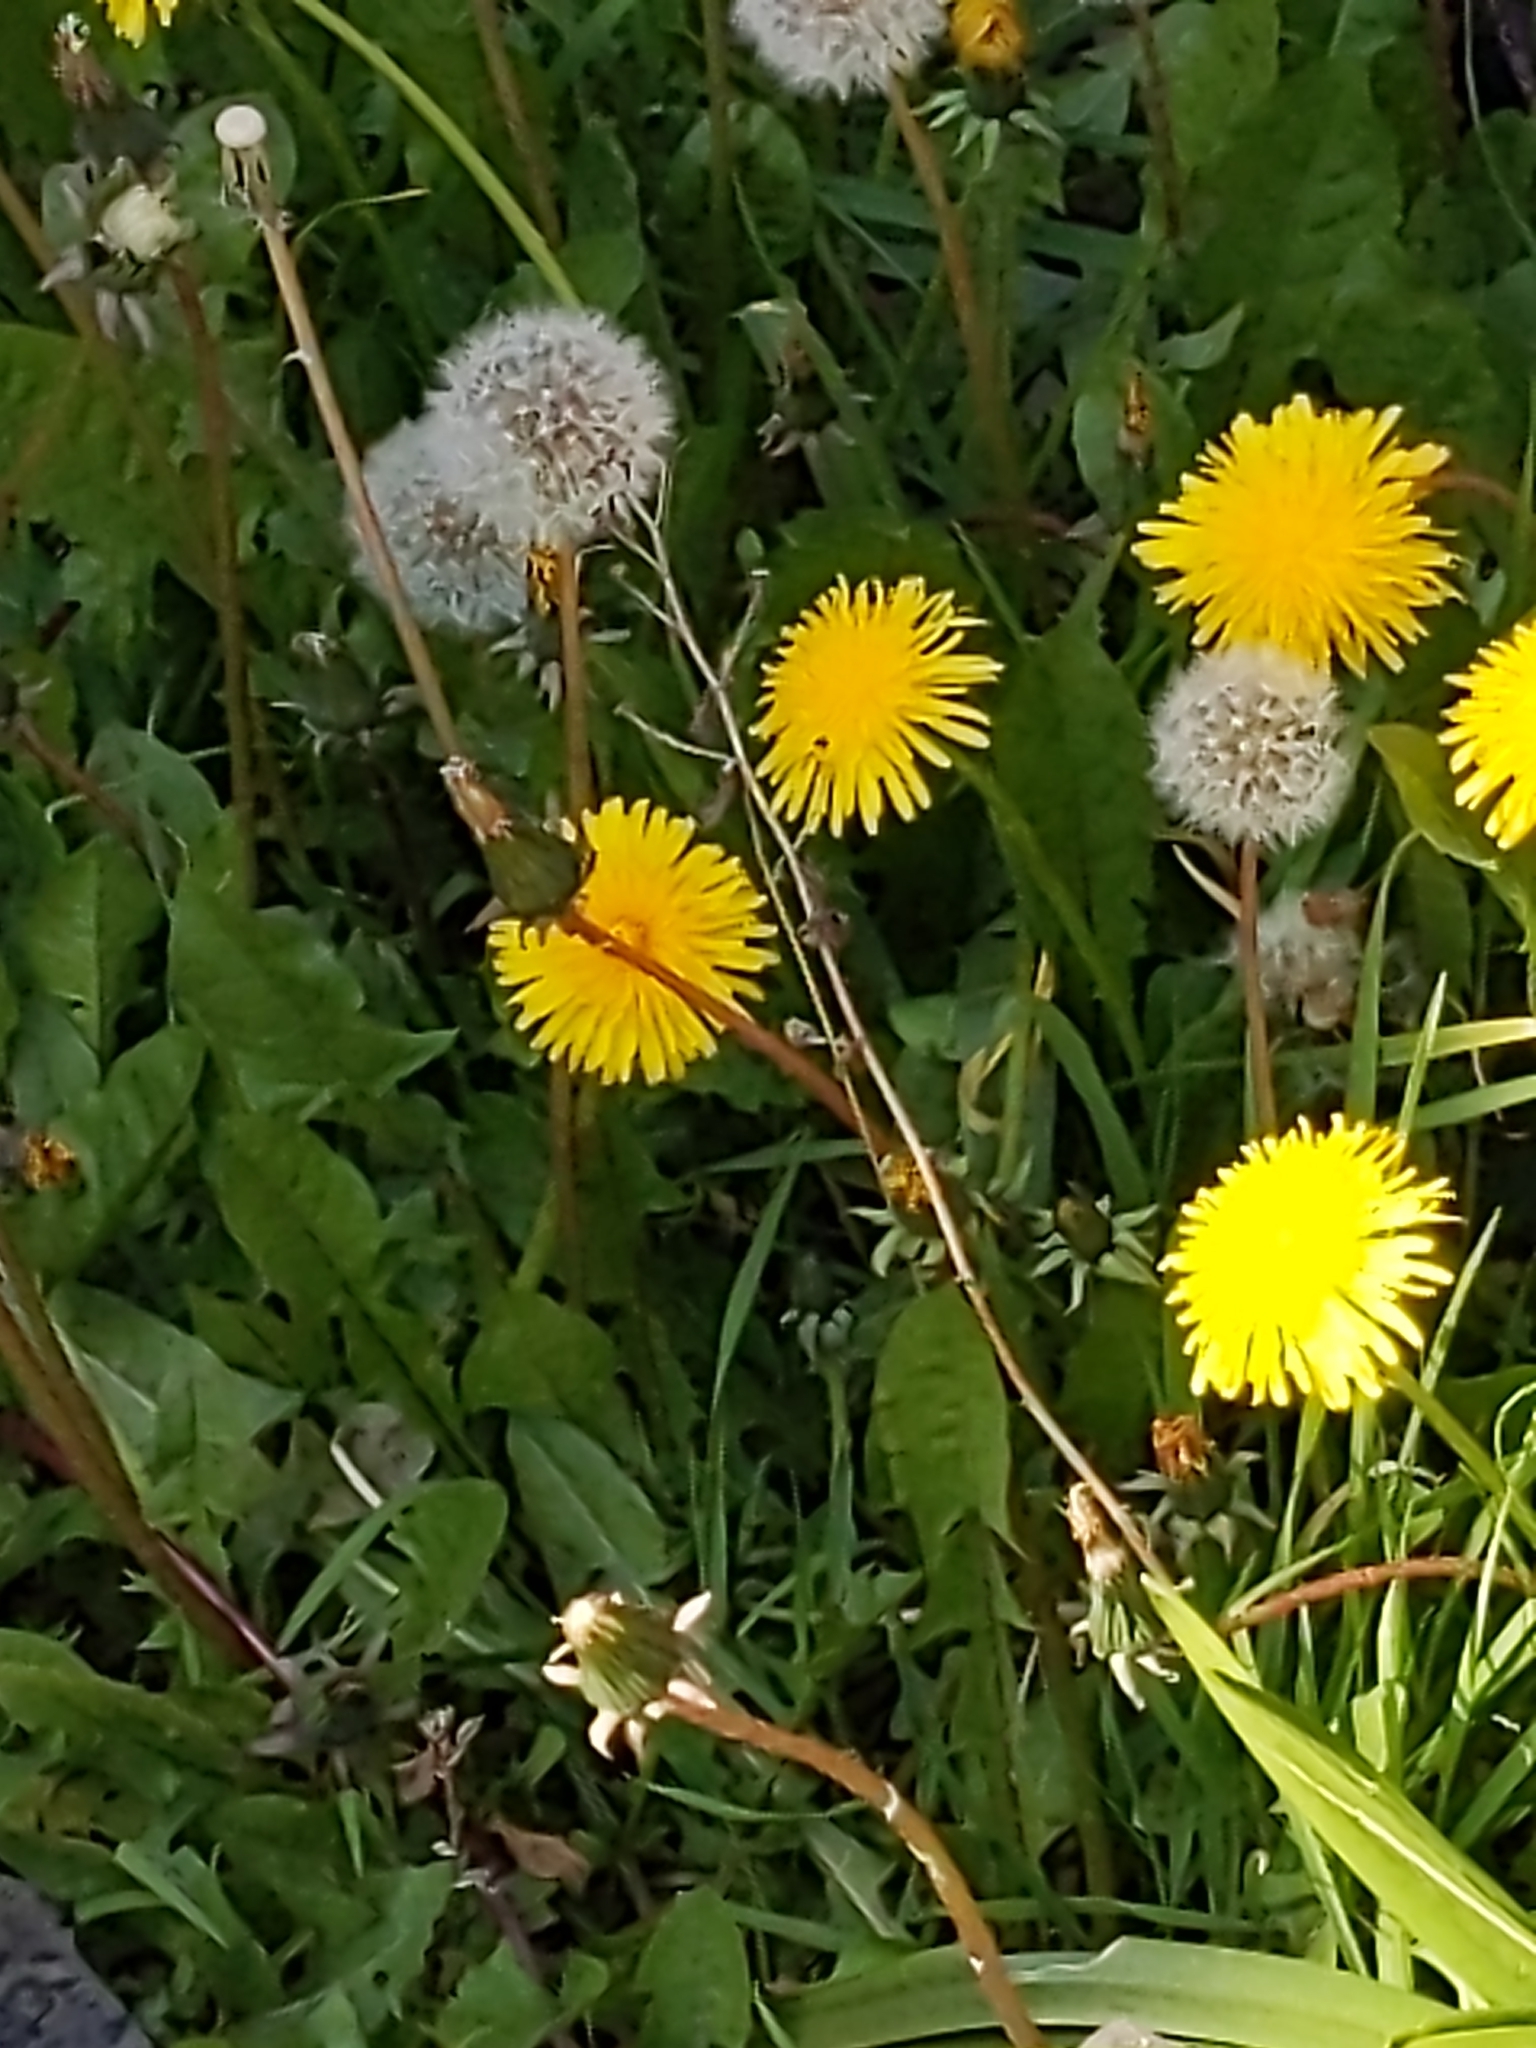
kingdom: Plantae
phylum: Tracheophyta
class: Magnoliopsida
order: Asterales
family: Asteraceae
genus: Taraxacum
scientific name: Taraxacum officinale
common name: Common dandelion
